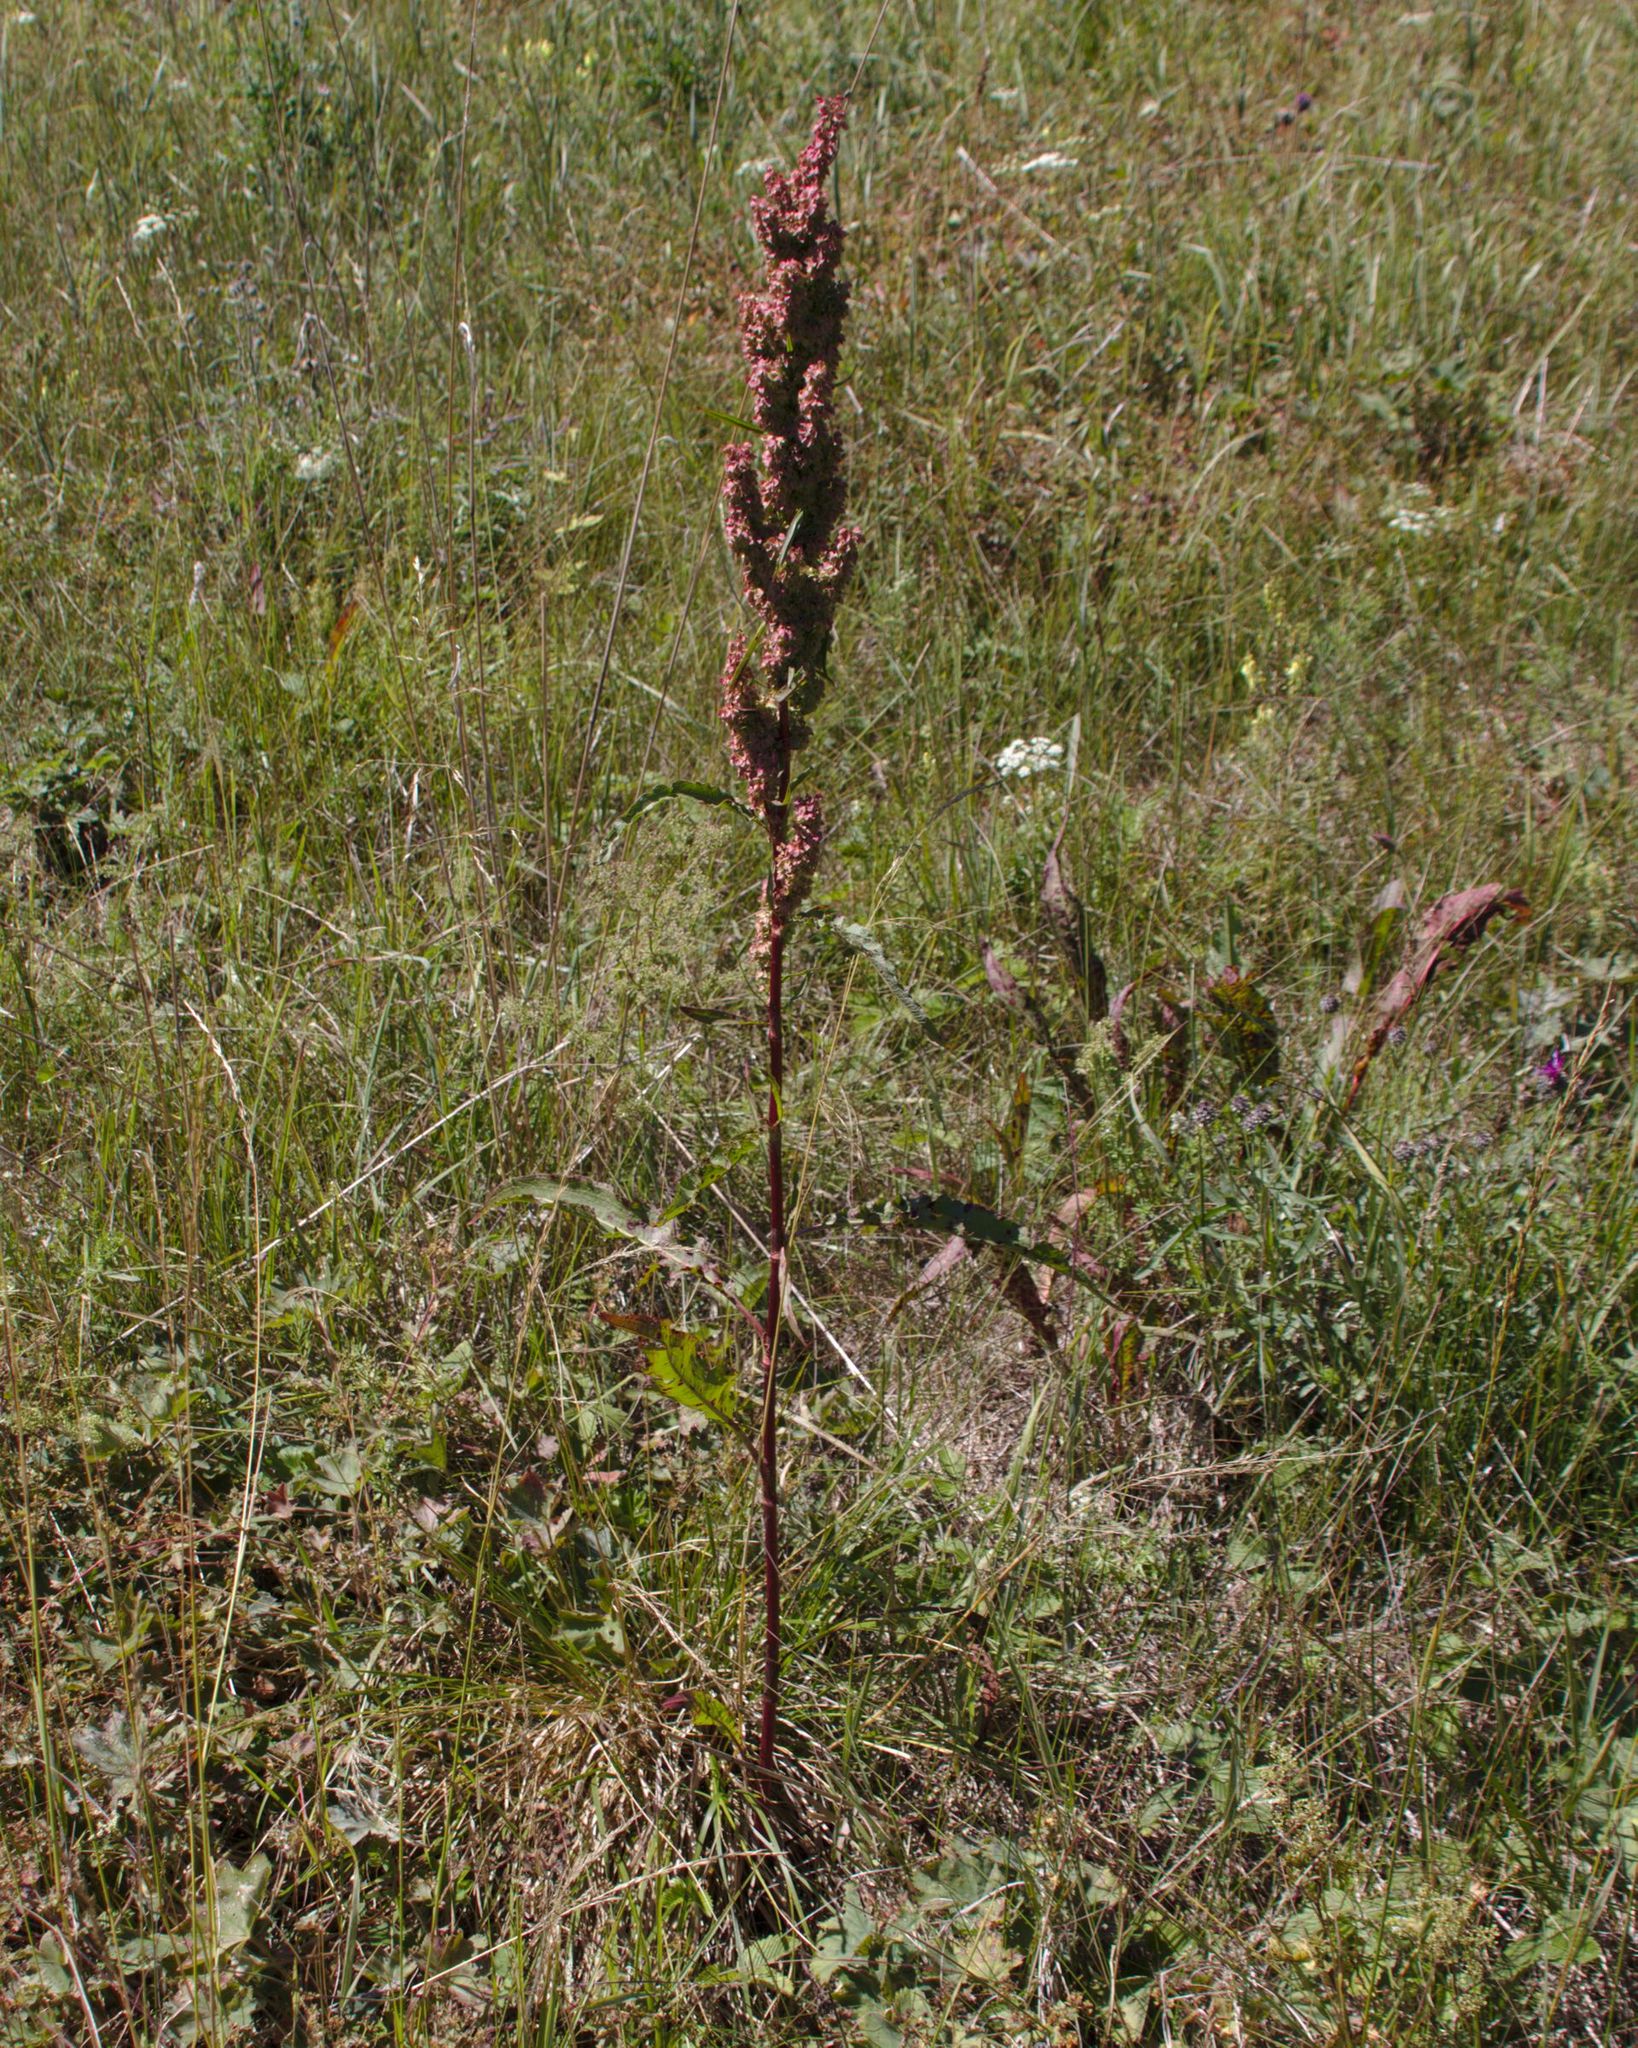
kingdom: Plantae
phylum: Tracheophyta
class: Magnoliopsida
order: Caryophyllales
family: Polygonaceae
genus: Rumex
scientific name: Rumex pseudonatronatus
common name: Field dock
